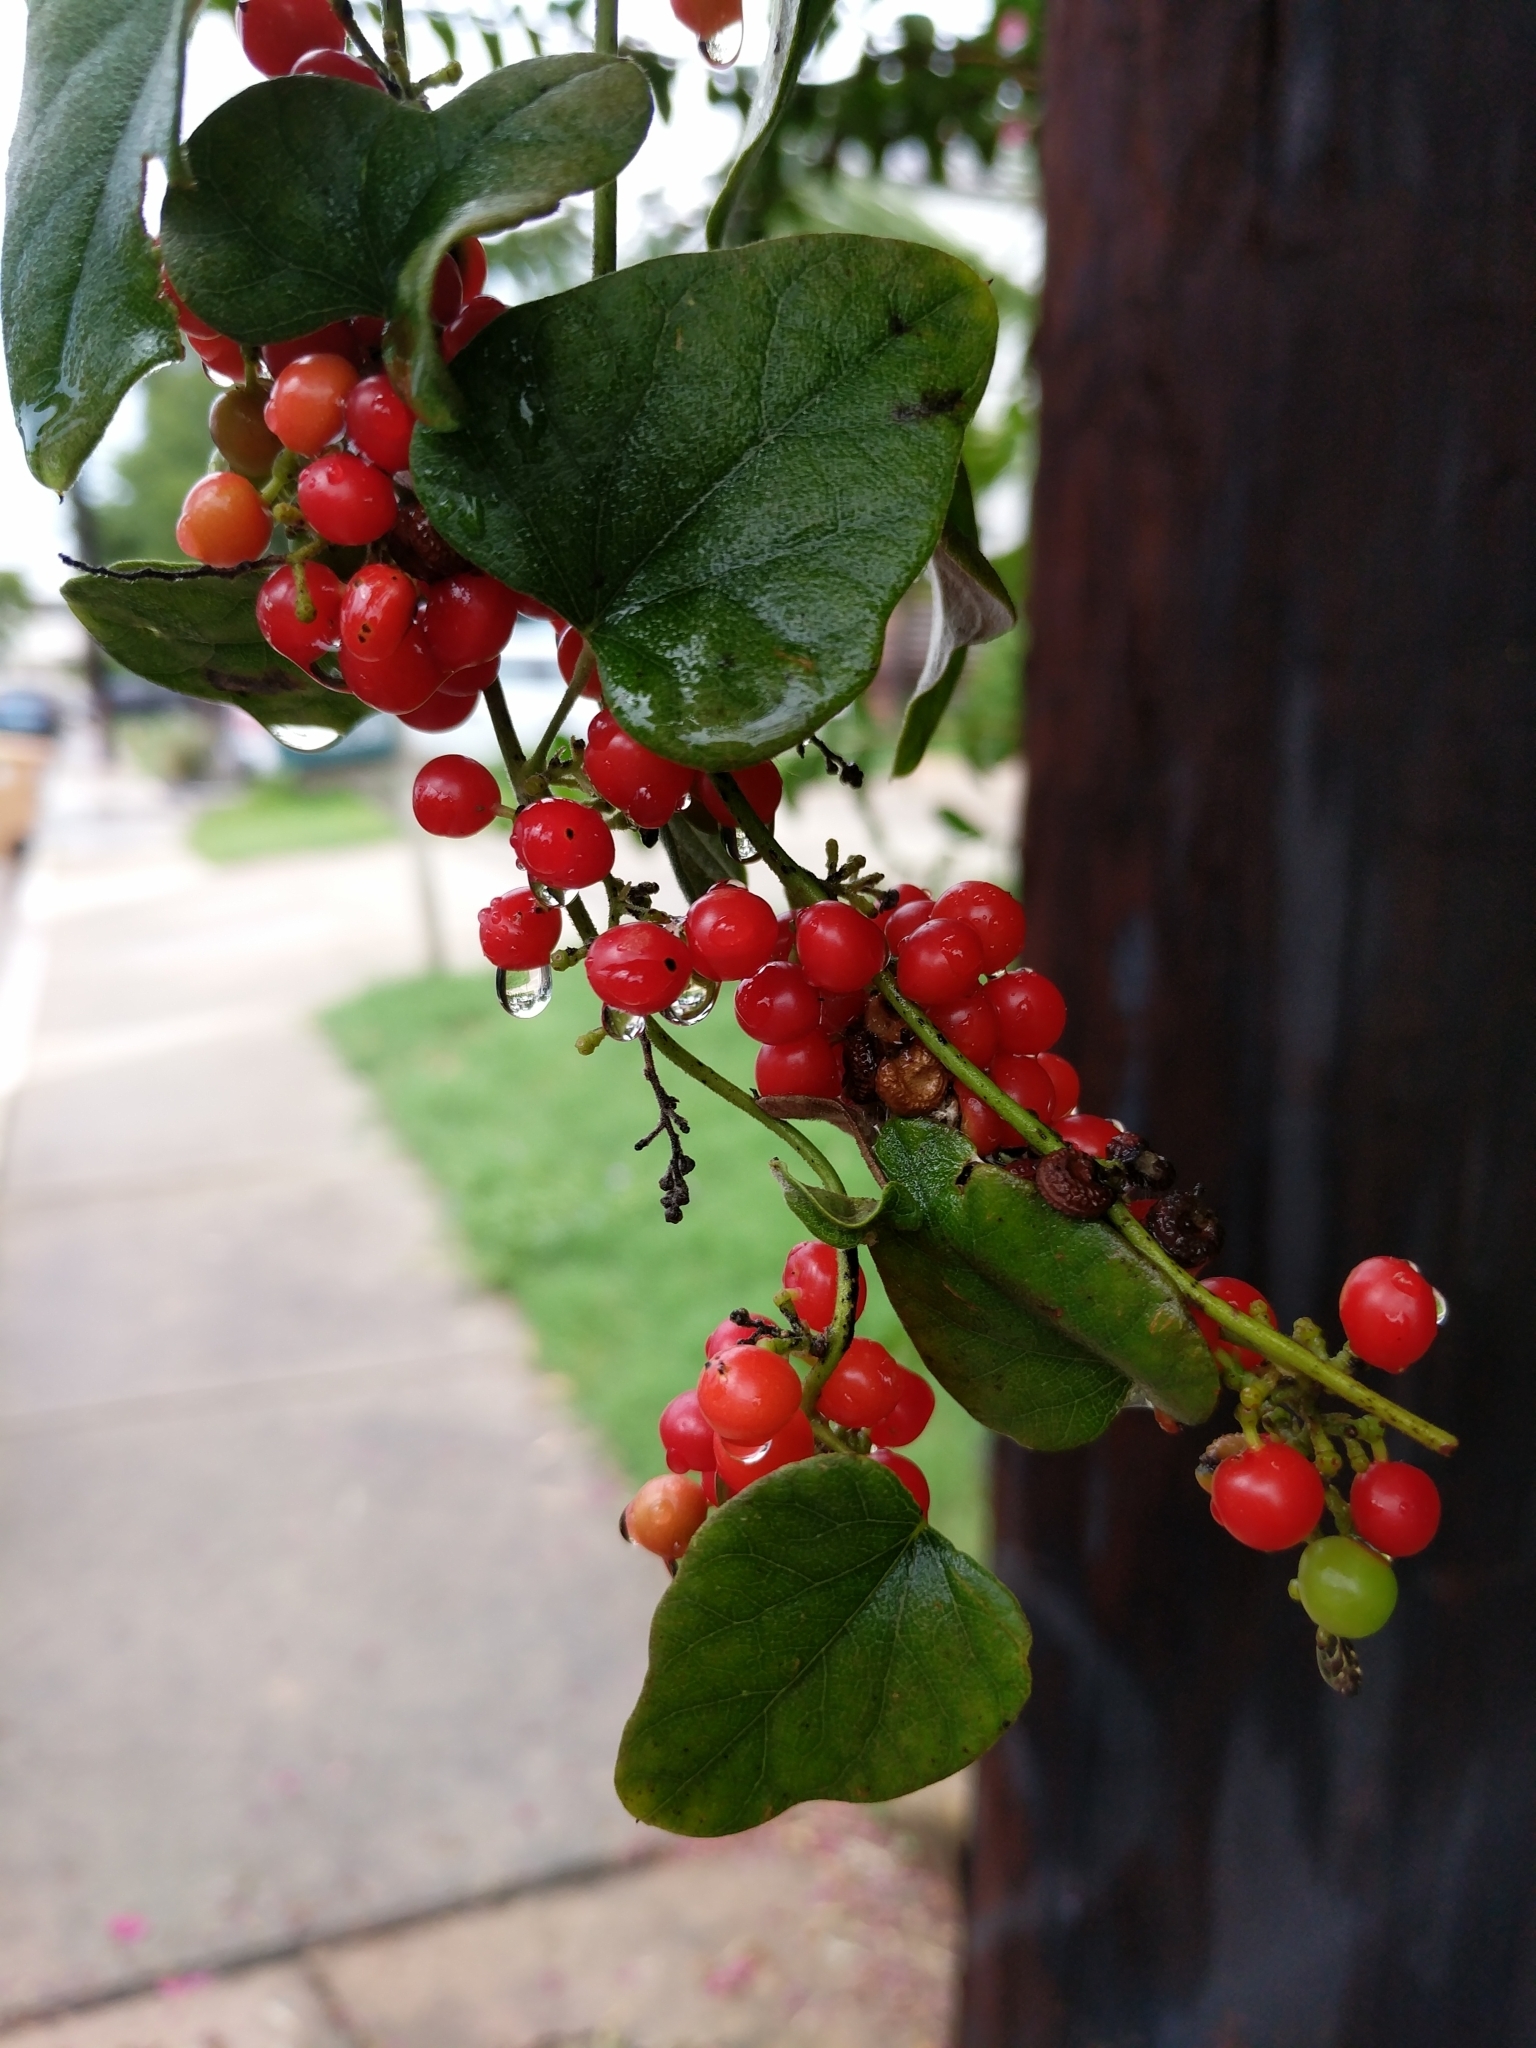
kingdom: Plantae
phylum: Tracheophyta
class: Magnoliopsida
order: Ranunculales
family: Menispermaceae
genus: Cocculus
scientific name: Cocculus carolinus
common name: Carolina moonseed
